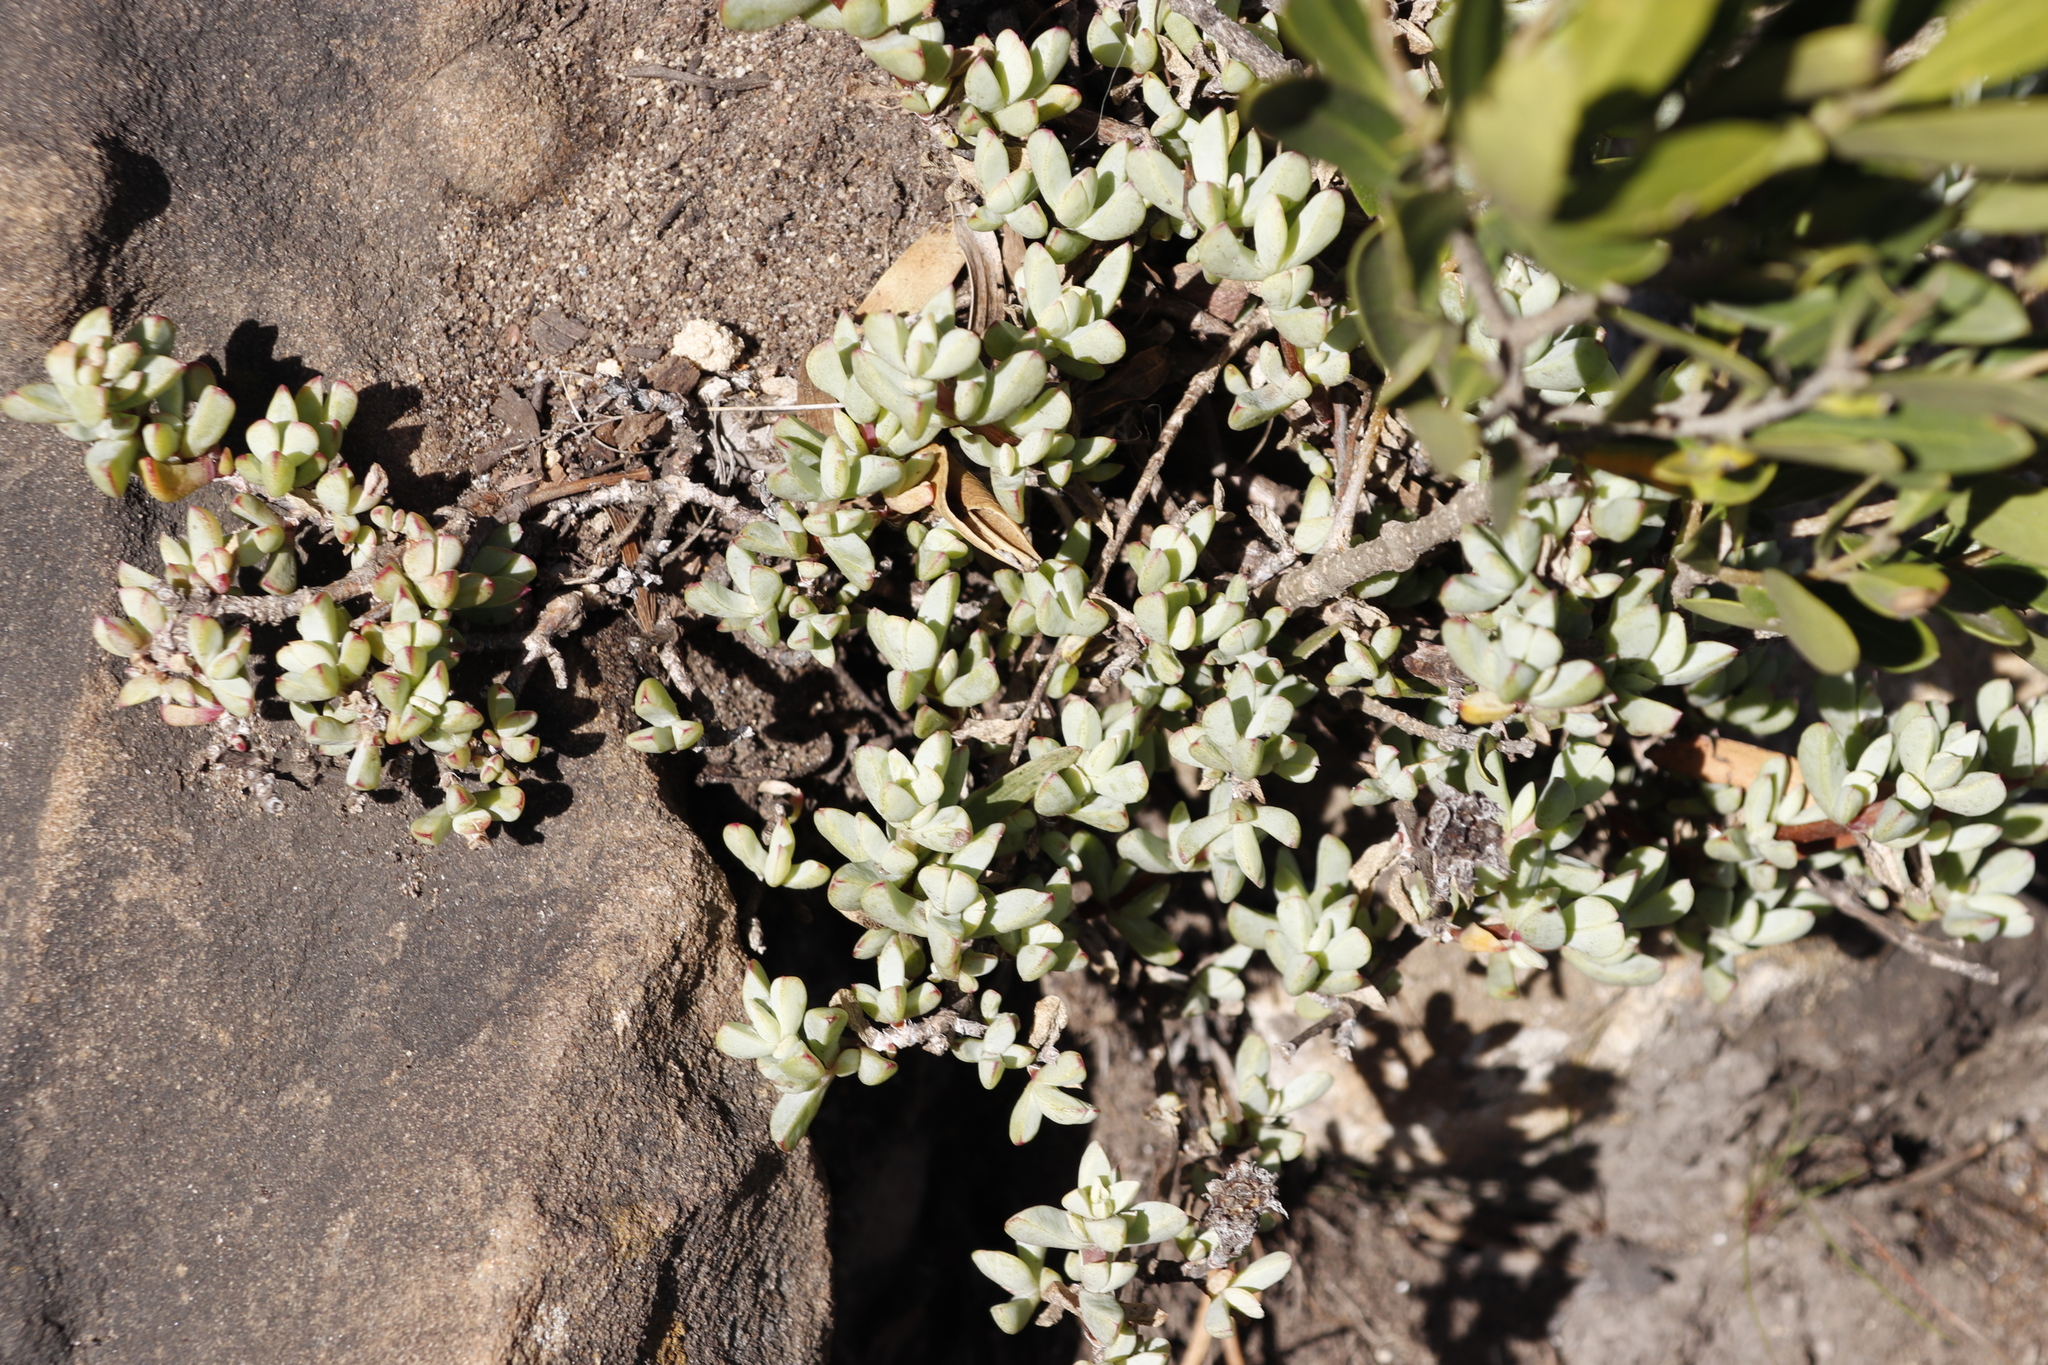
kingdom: Plantae
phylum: Tracheophyta
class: Magnoliopsida
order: Caryophyllales
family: Aizoaceae
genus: Oscularia
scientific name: Oscularia deltoides
